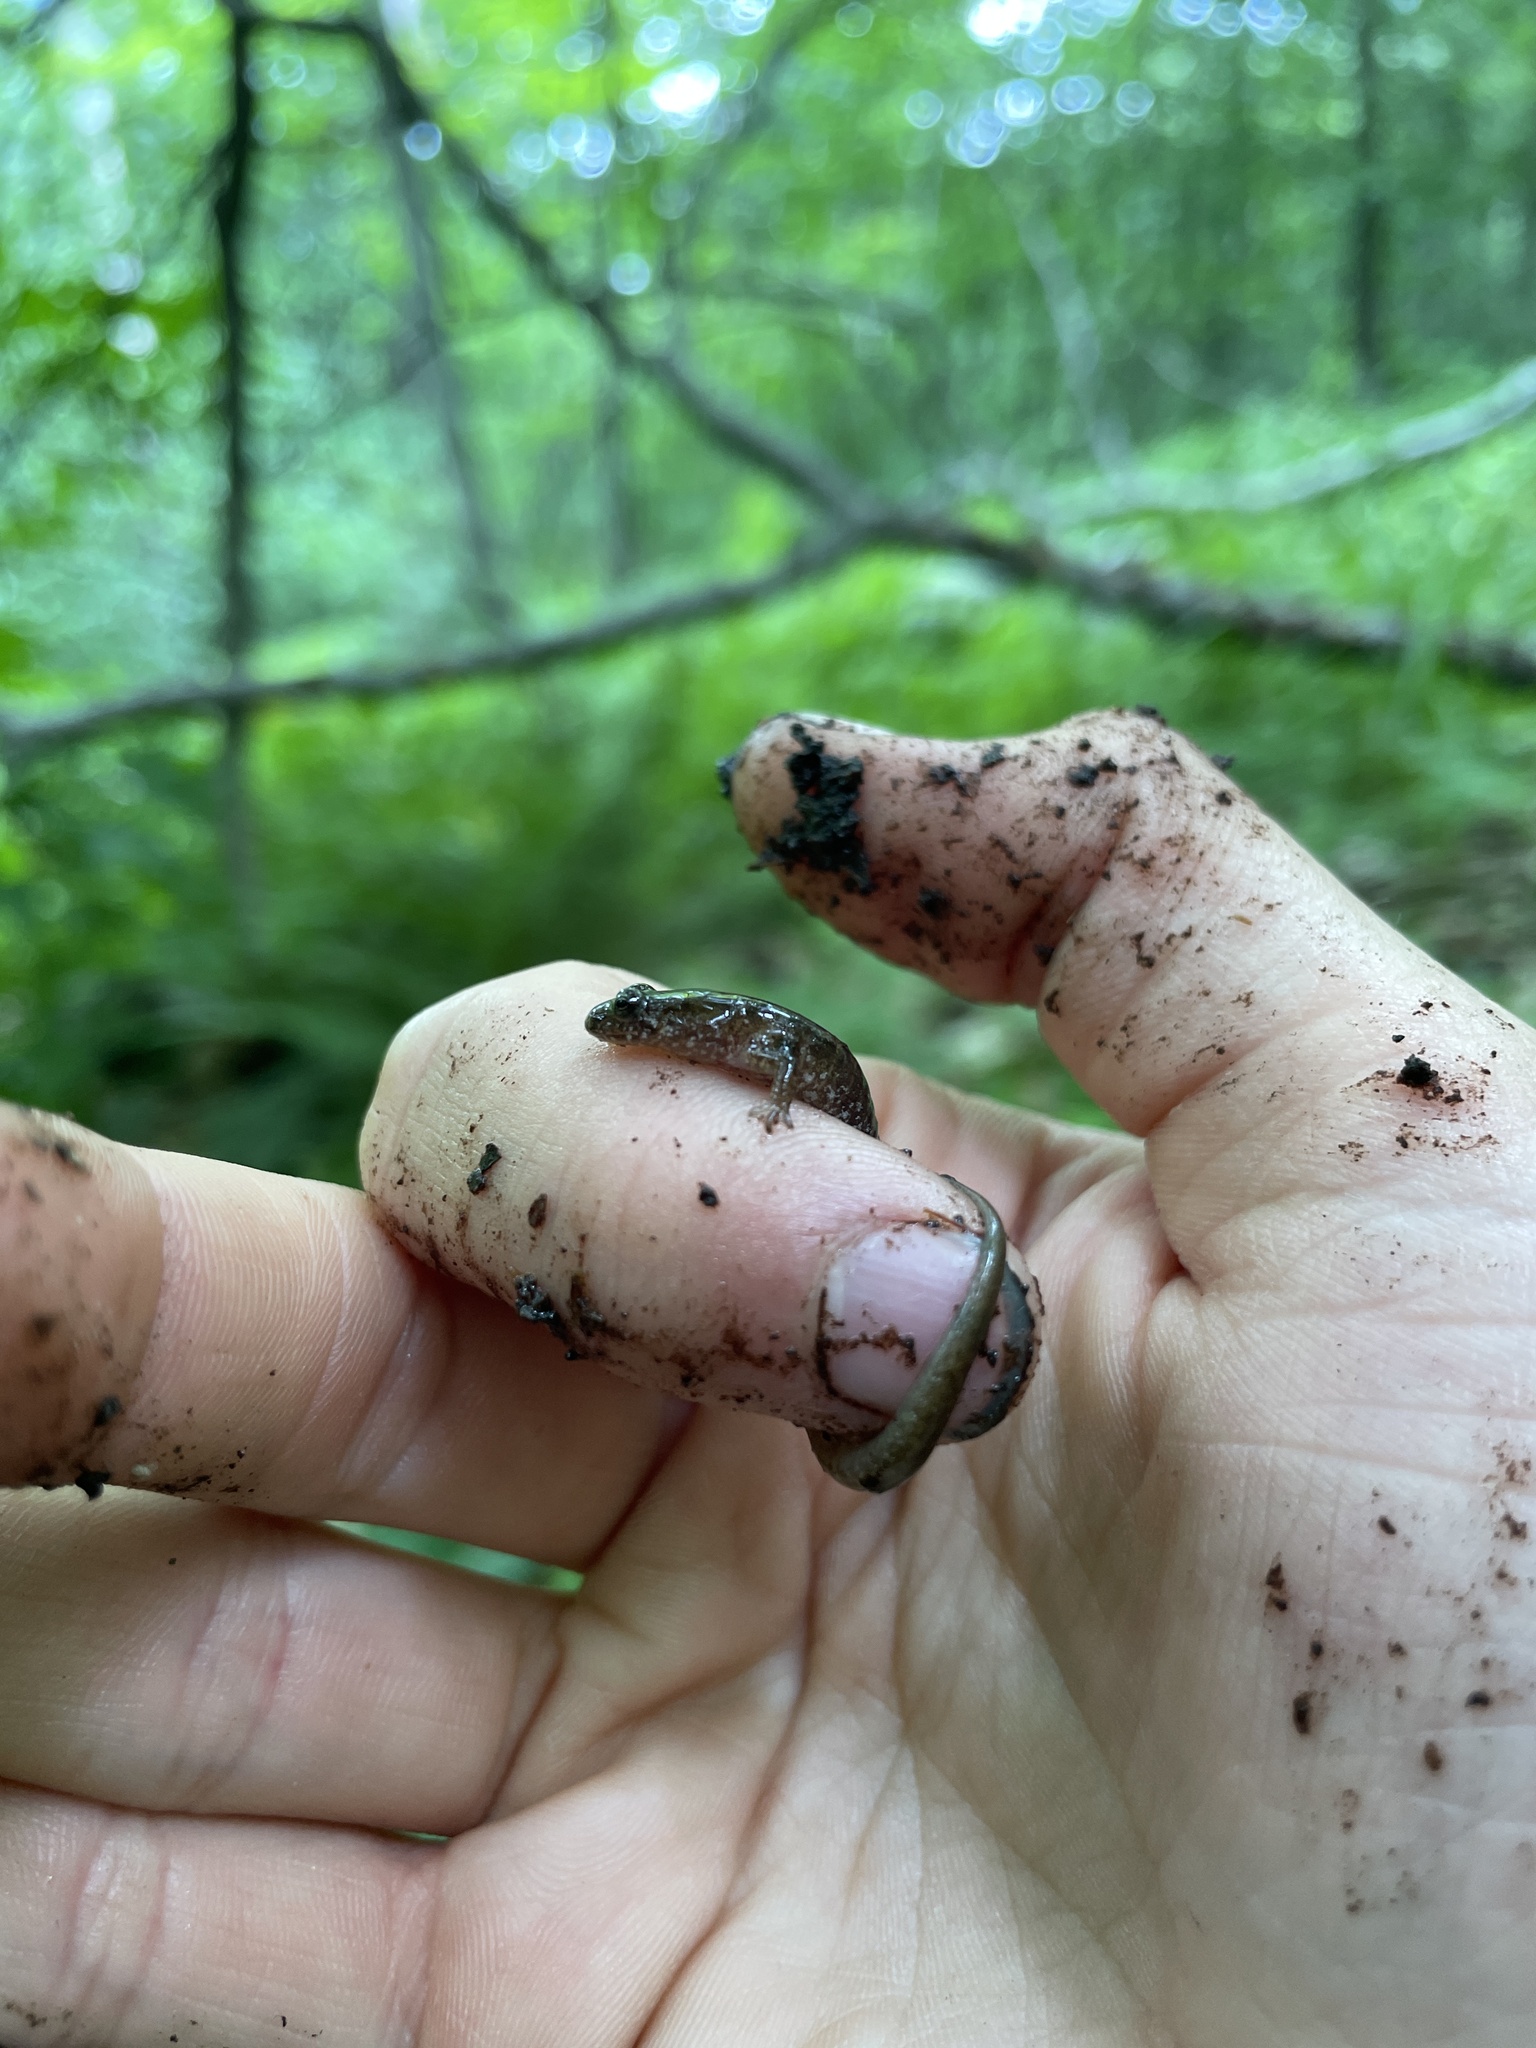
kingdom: Animalia
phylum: Chordata
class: Amphibia
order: Caudata
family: Plethodontidae
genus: Desmognathus
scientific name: Desmognathus fuscus
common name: Northern dusky salamander
